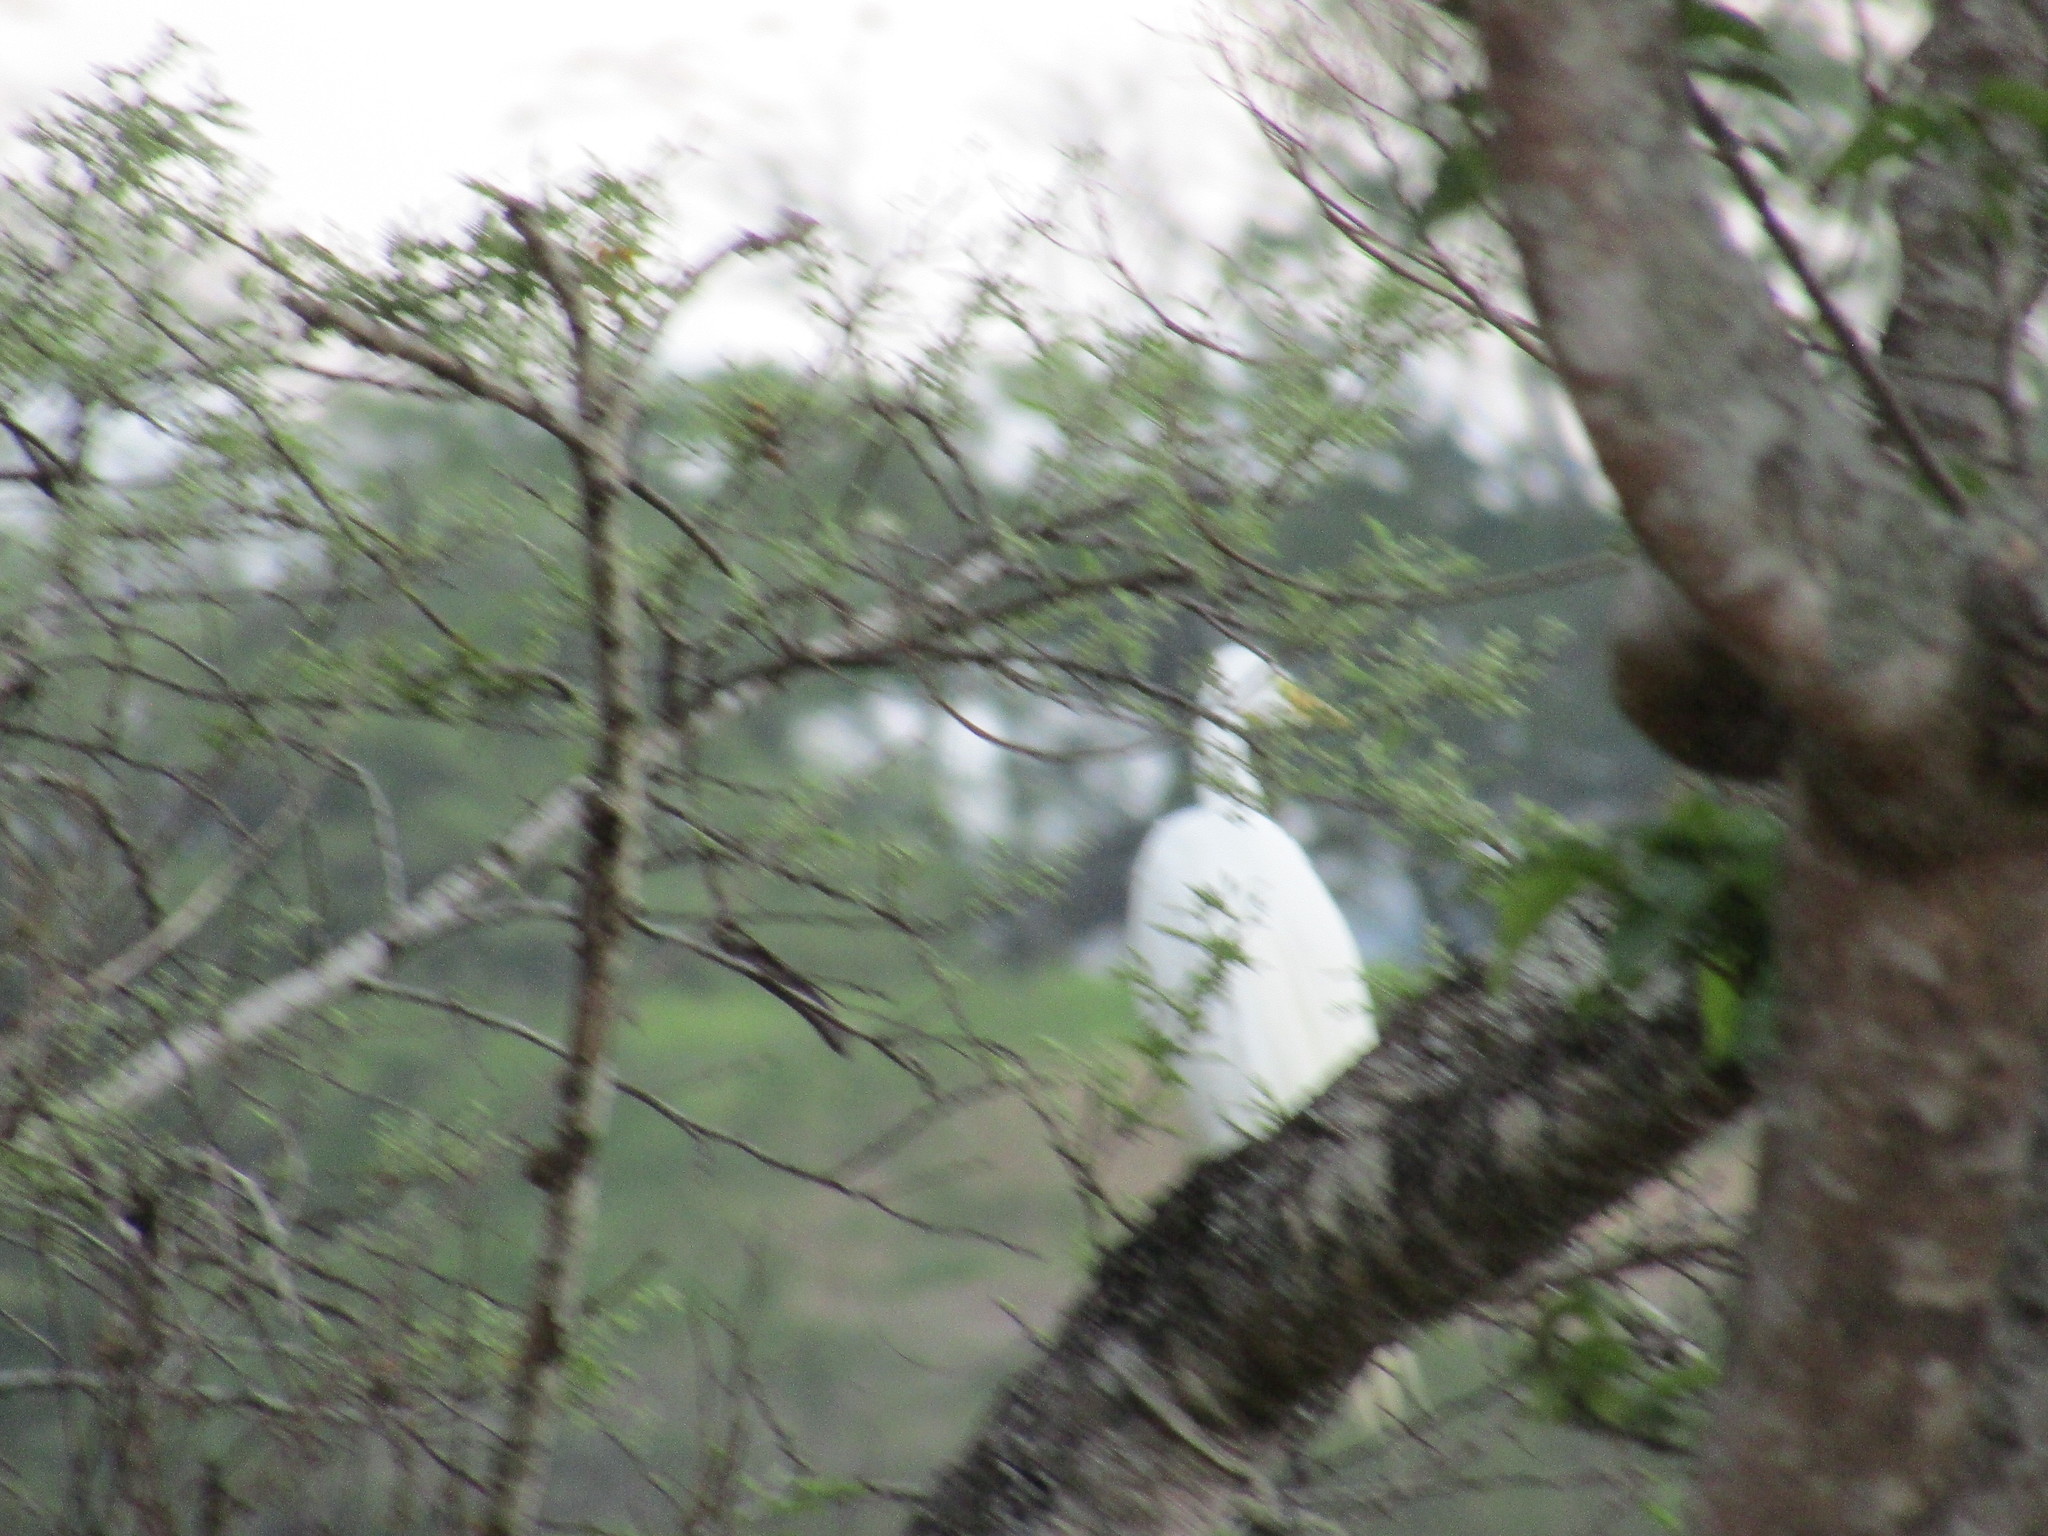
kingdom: Animalia
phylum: Chordata
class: Aves
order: Pelecaniformes
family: Ardeidae
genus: Ardea
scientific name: Ardea alba
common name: Great egret
